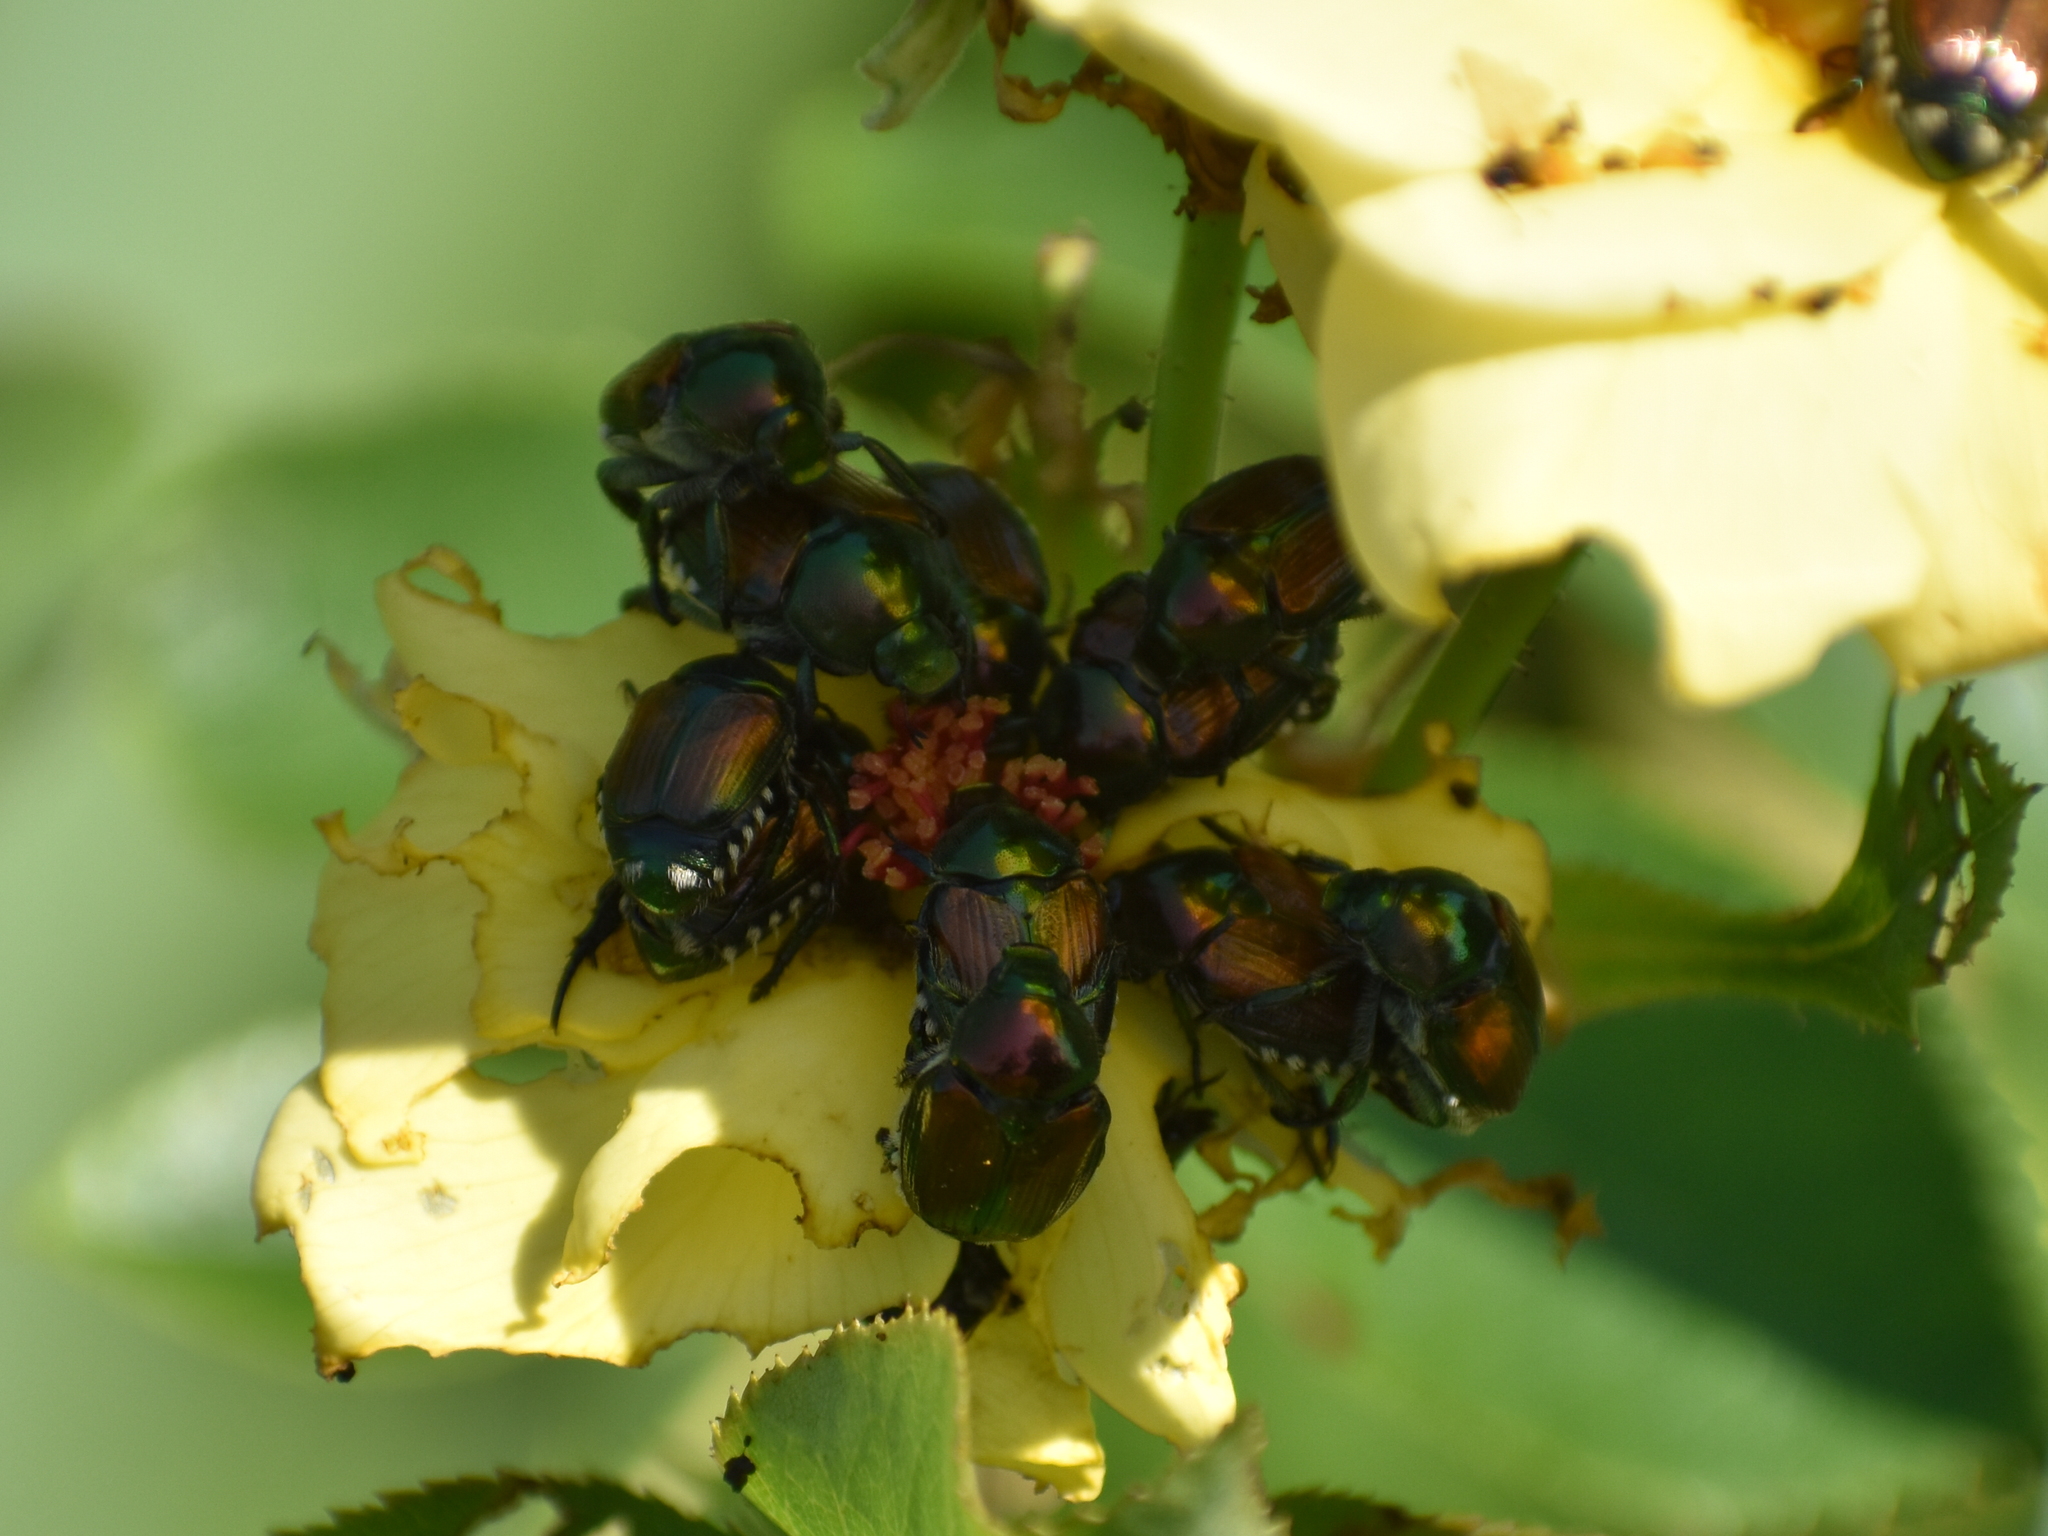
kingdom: Animalia
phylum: Arthropoda
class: Insecta
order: Coleoptera
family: Scarabaeidae
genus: Popillia
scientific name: Popillia japonica
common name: Japanese beetle
